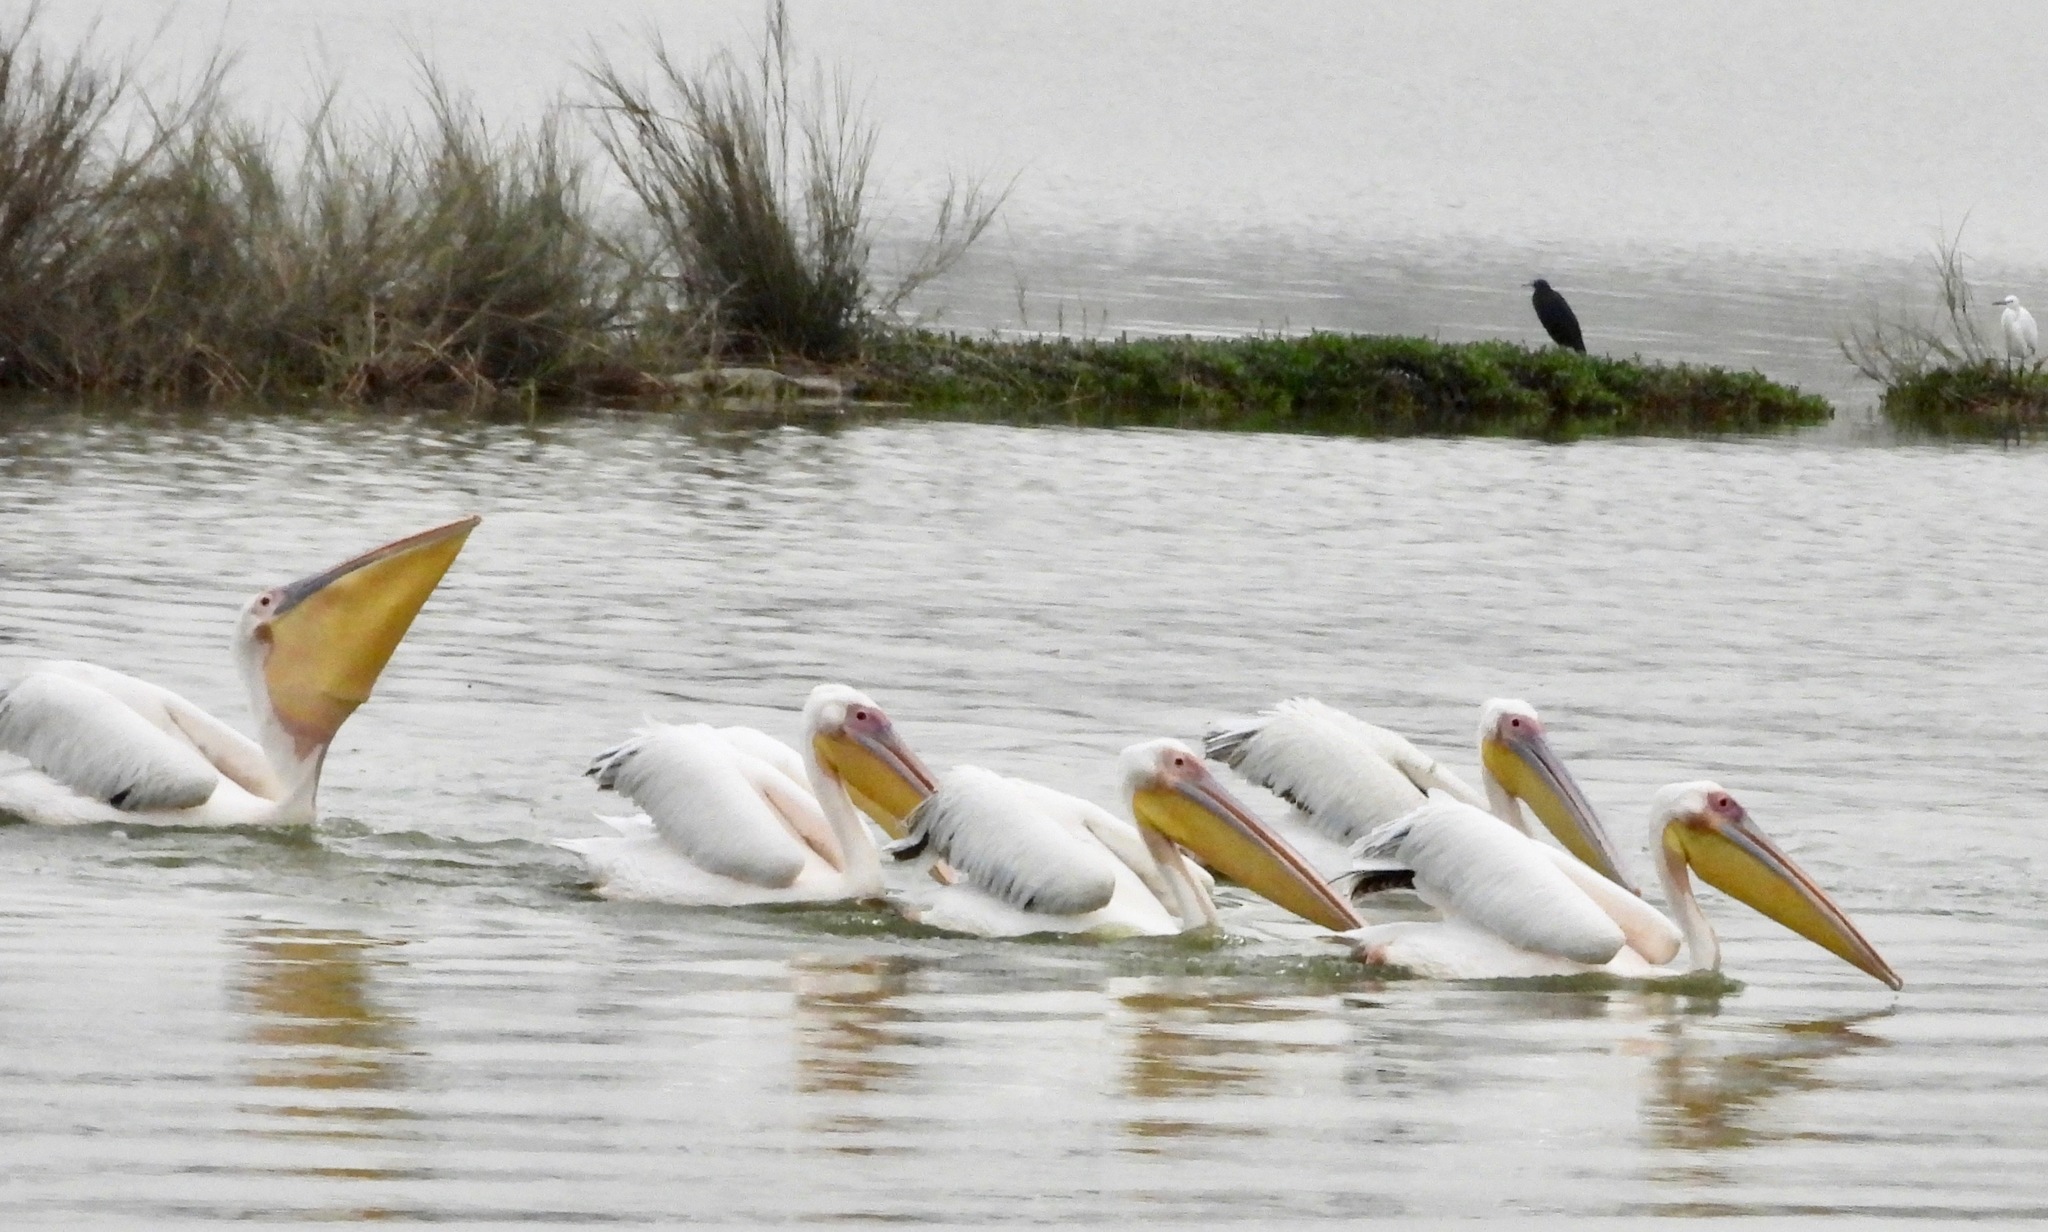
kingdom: Animalia
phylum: Chordata
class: Aves
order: Pelecaniformes
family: Pelecanidae
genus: Pelecanus
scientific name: Pelecanus onocrotalus
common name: Great white pelican
